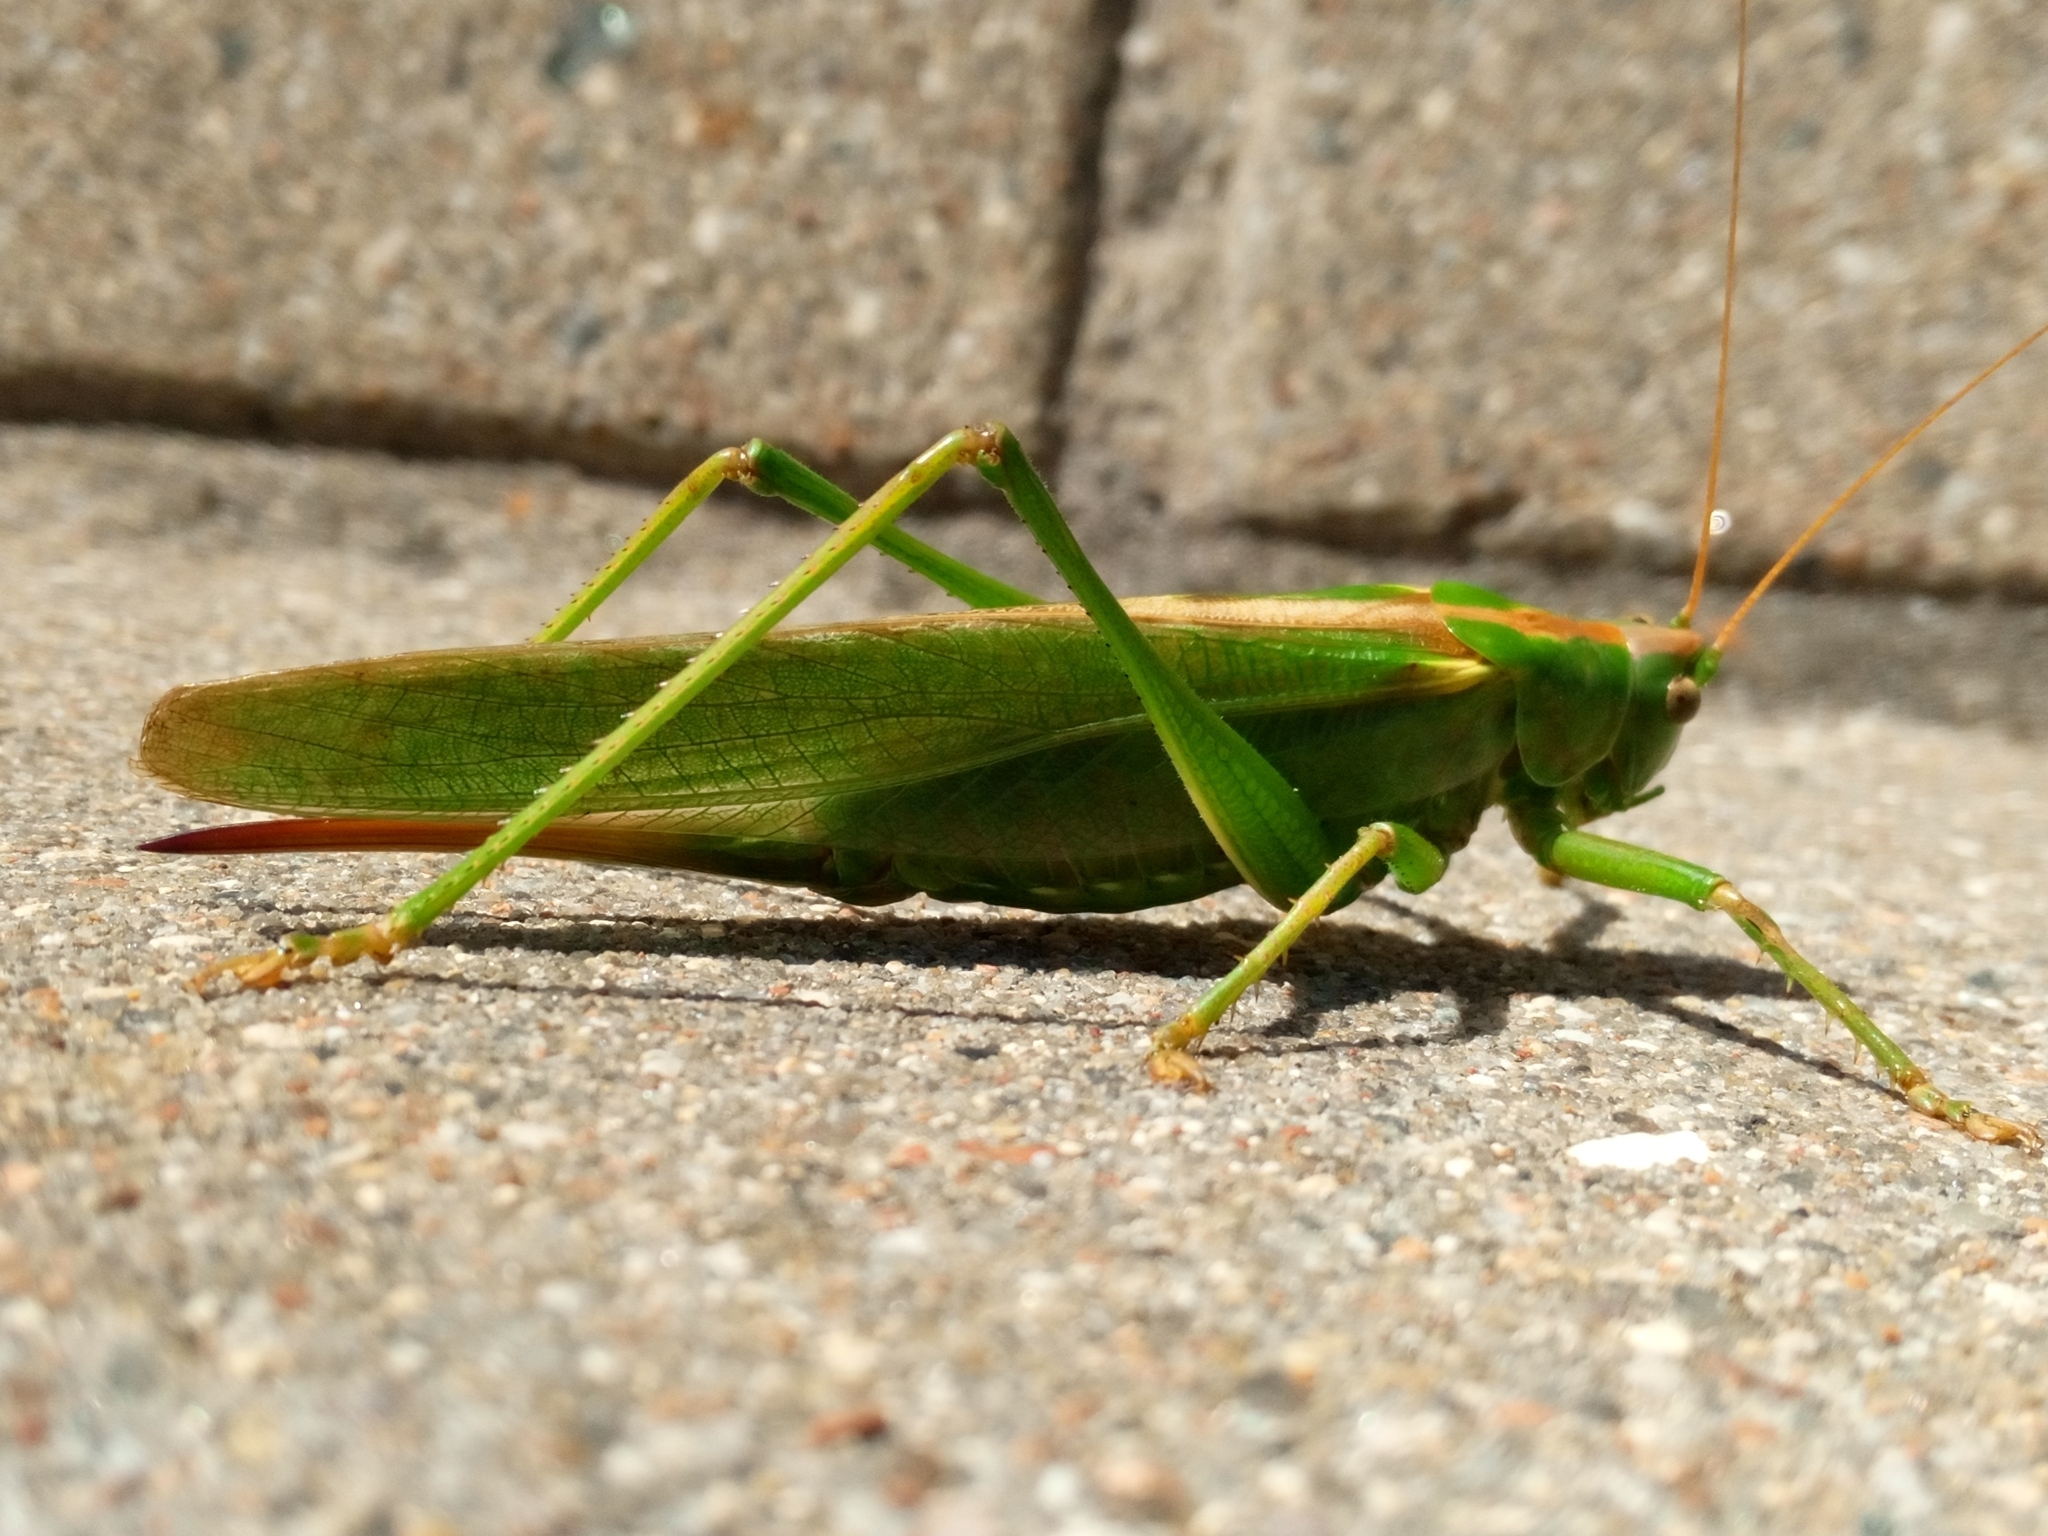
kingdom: Animalia
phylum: Arthropoda
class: Insecta
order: Orthoptera
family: Tettigoniidae
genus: Tettigonia
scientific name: Tettigonia viridissima
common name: Great green bush-cricket
